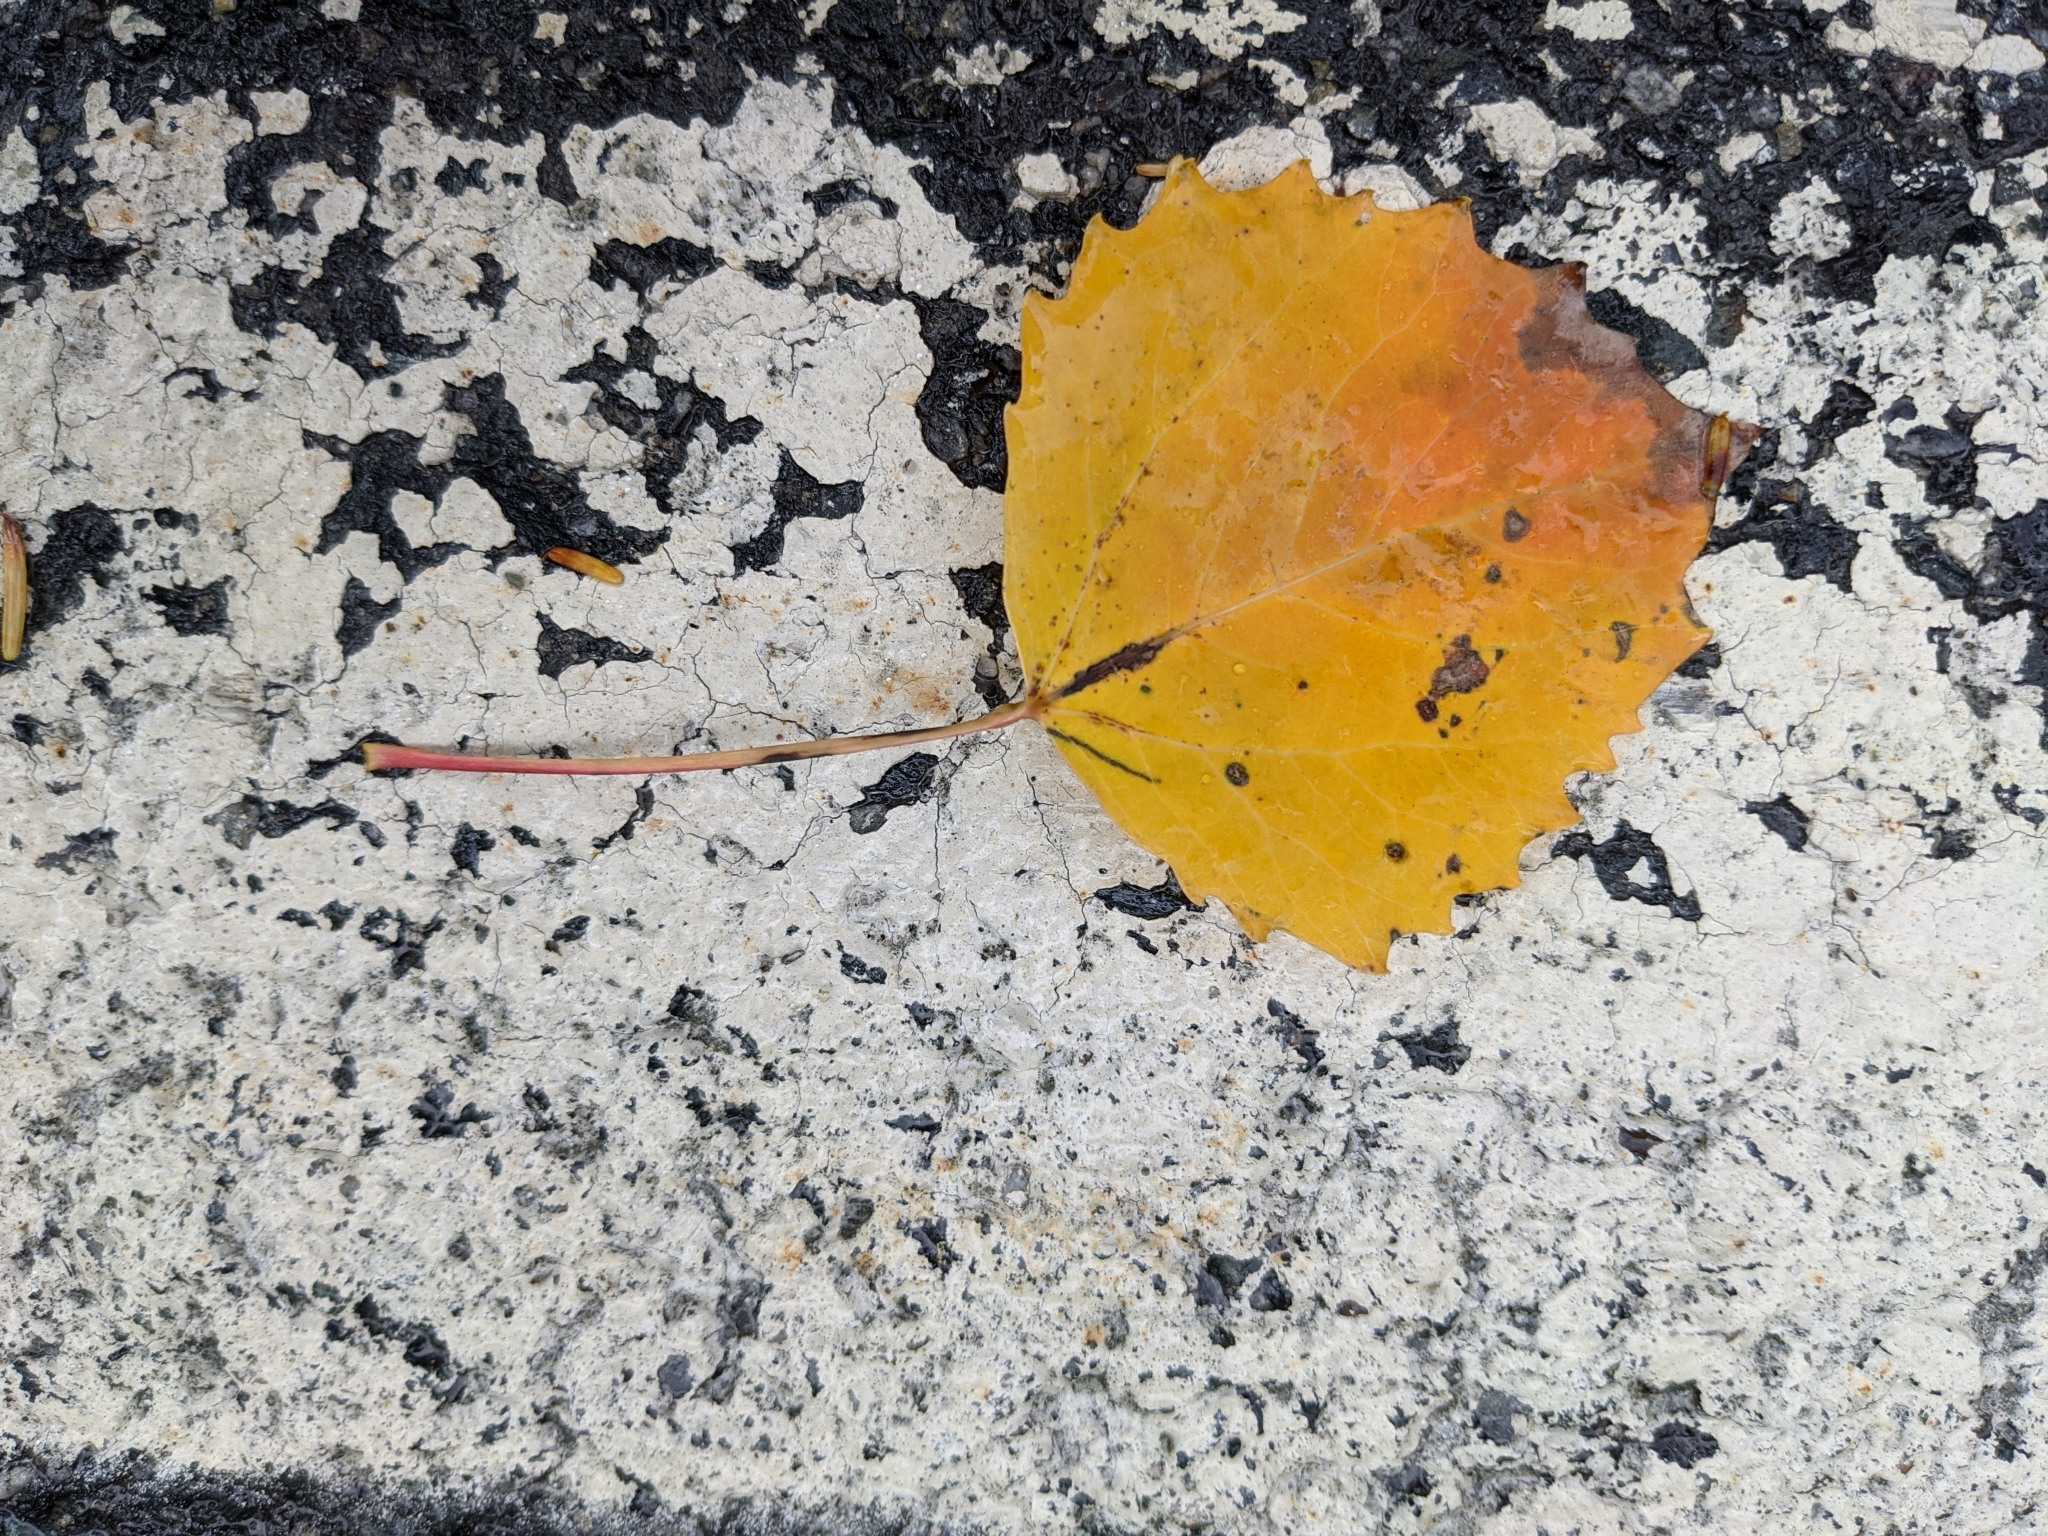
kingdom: Plantae
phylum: Tracheophyta
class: Magnoliopsida
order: Malpighiales
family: Salicaceae
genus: Populus
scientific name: Populus grandidentata
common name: Bigtooth aspen
